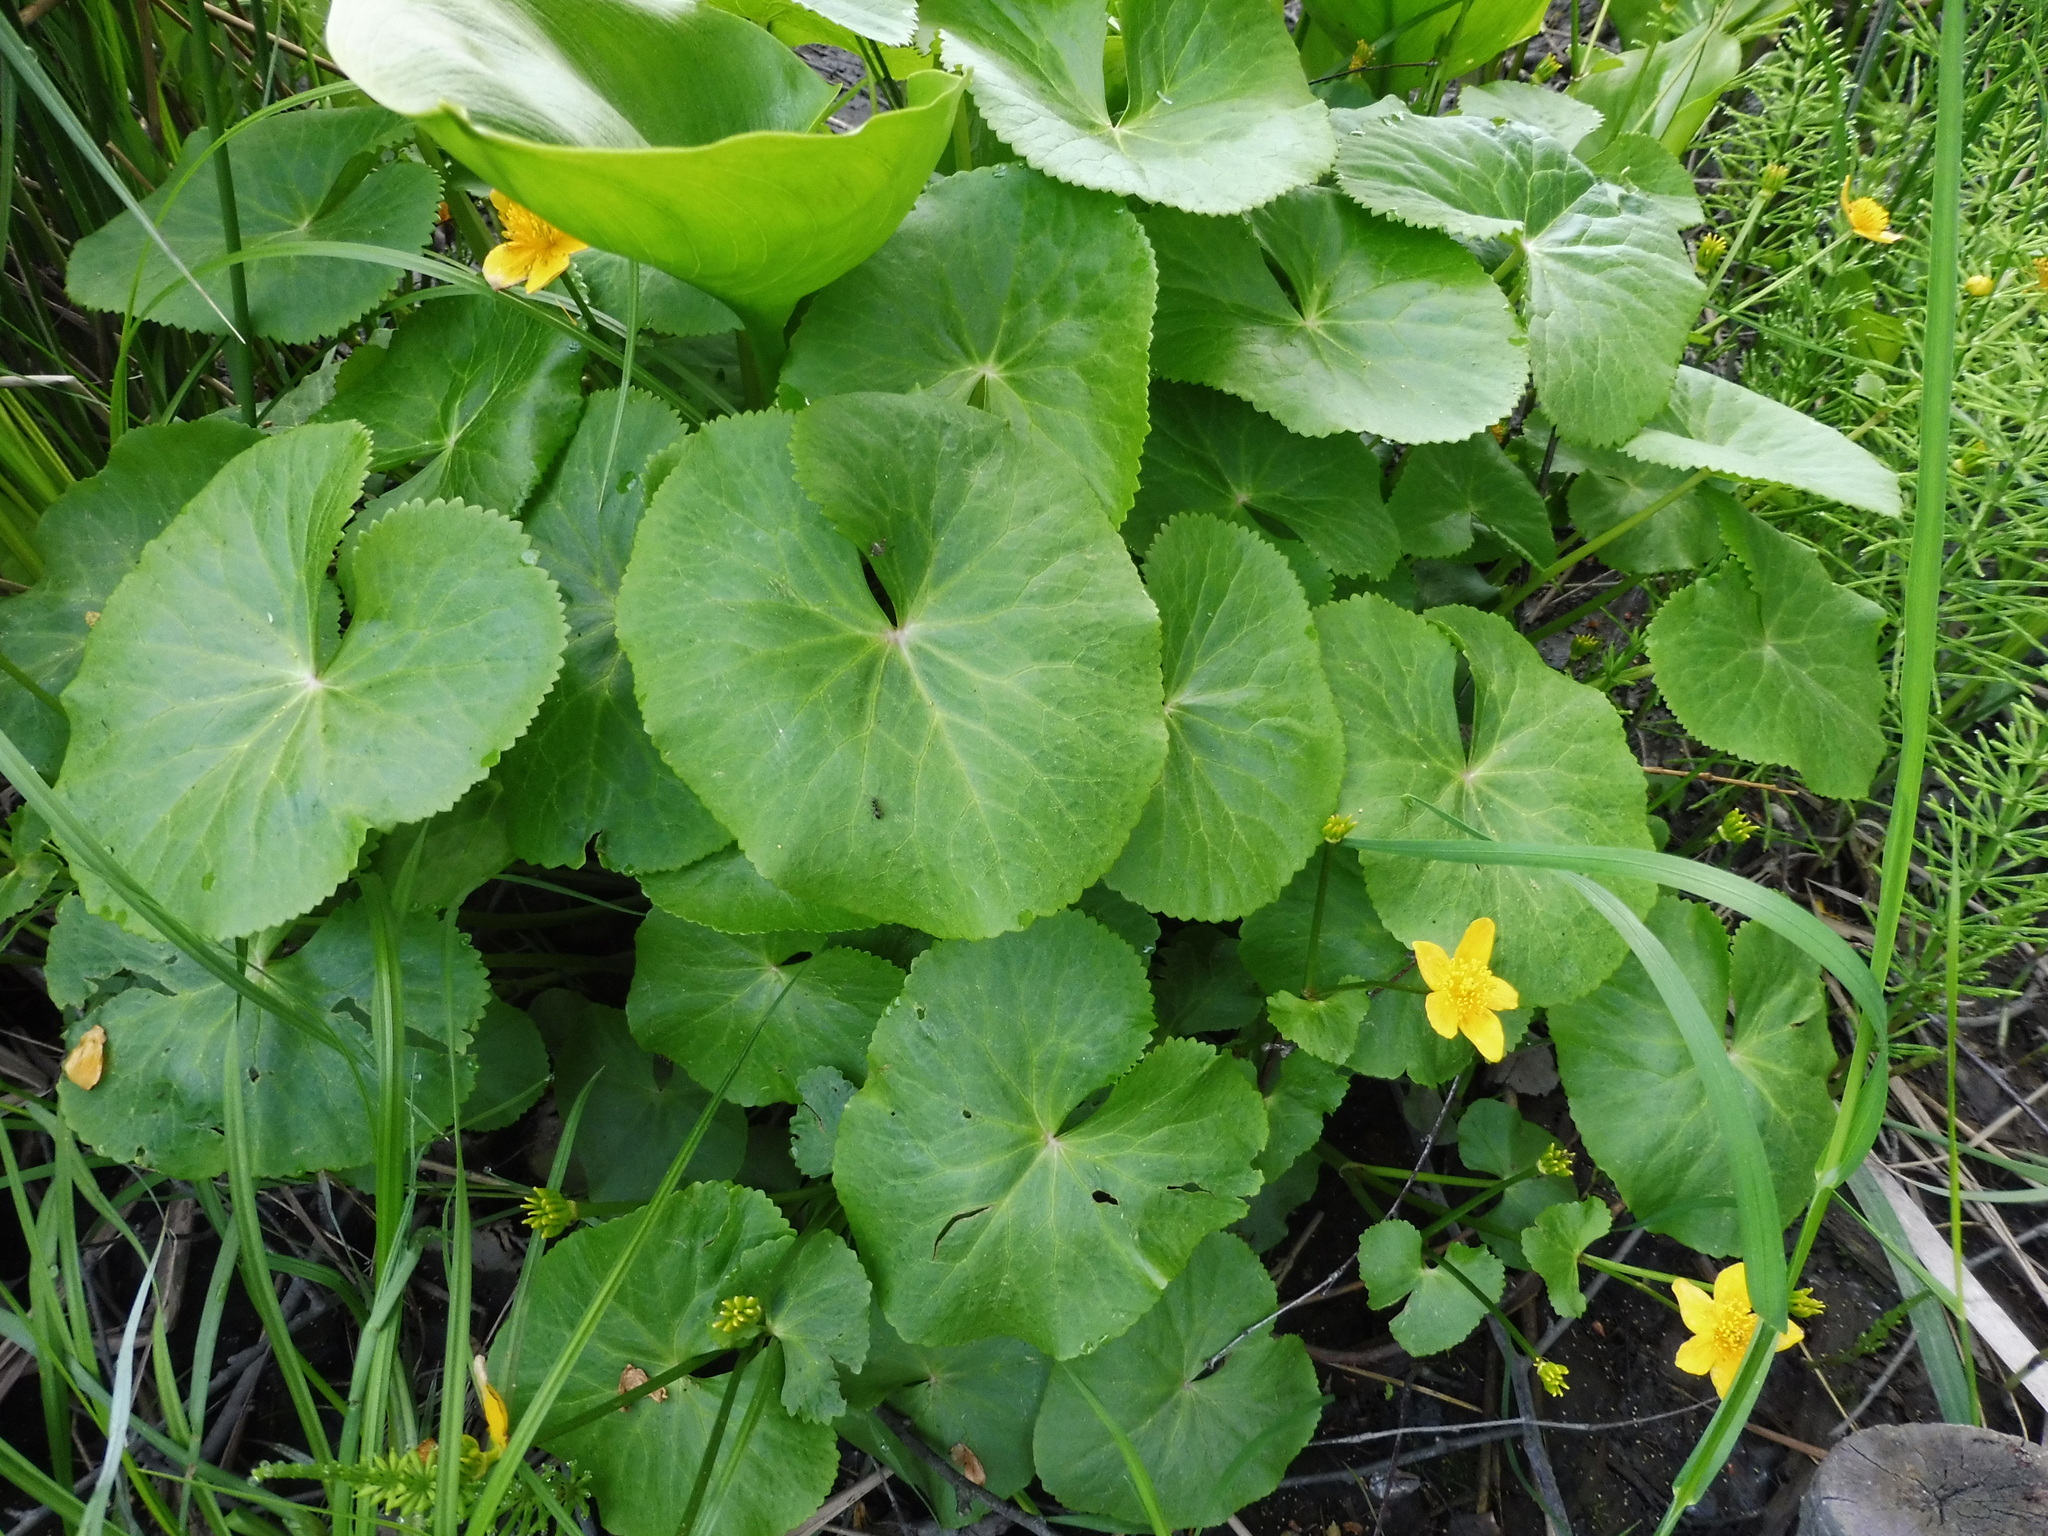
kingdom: Plantae
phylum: Tracheophyta
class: Magnoliopsida
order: Ranunculales
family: Ranunculaceae
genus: Caltha
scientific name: Caltha palustris
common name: Marsh marigold
